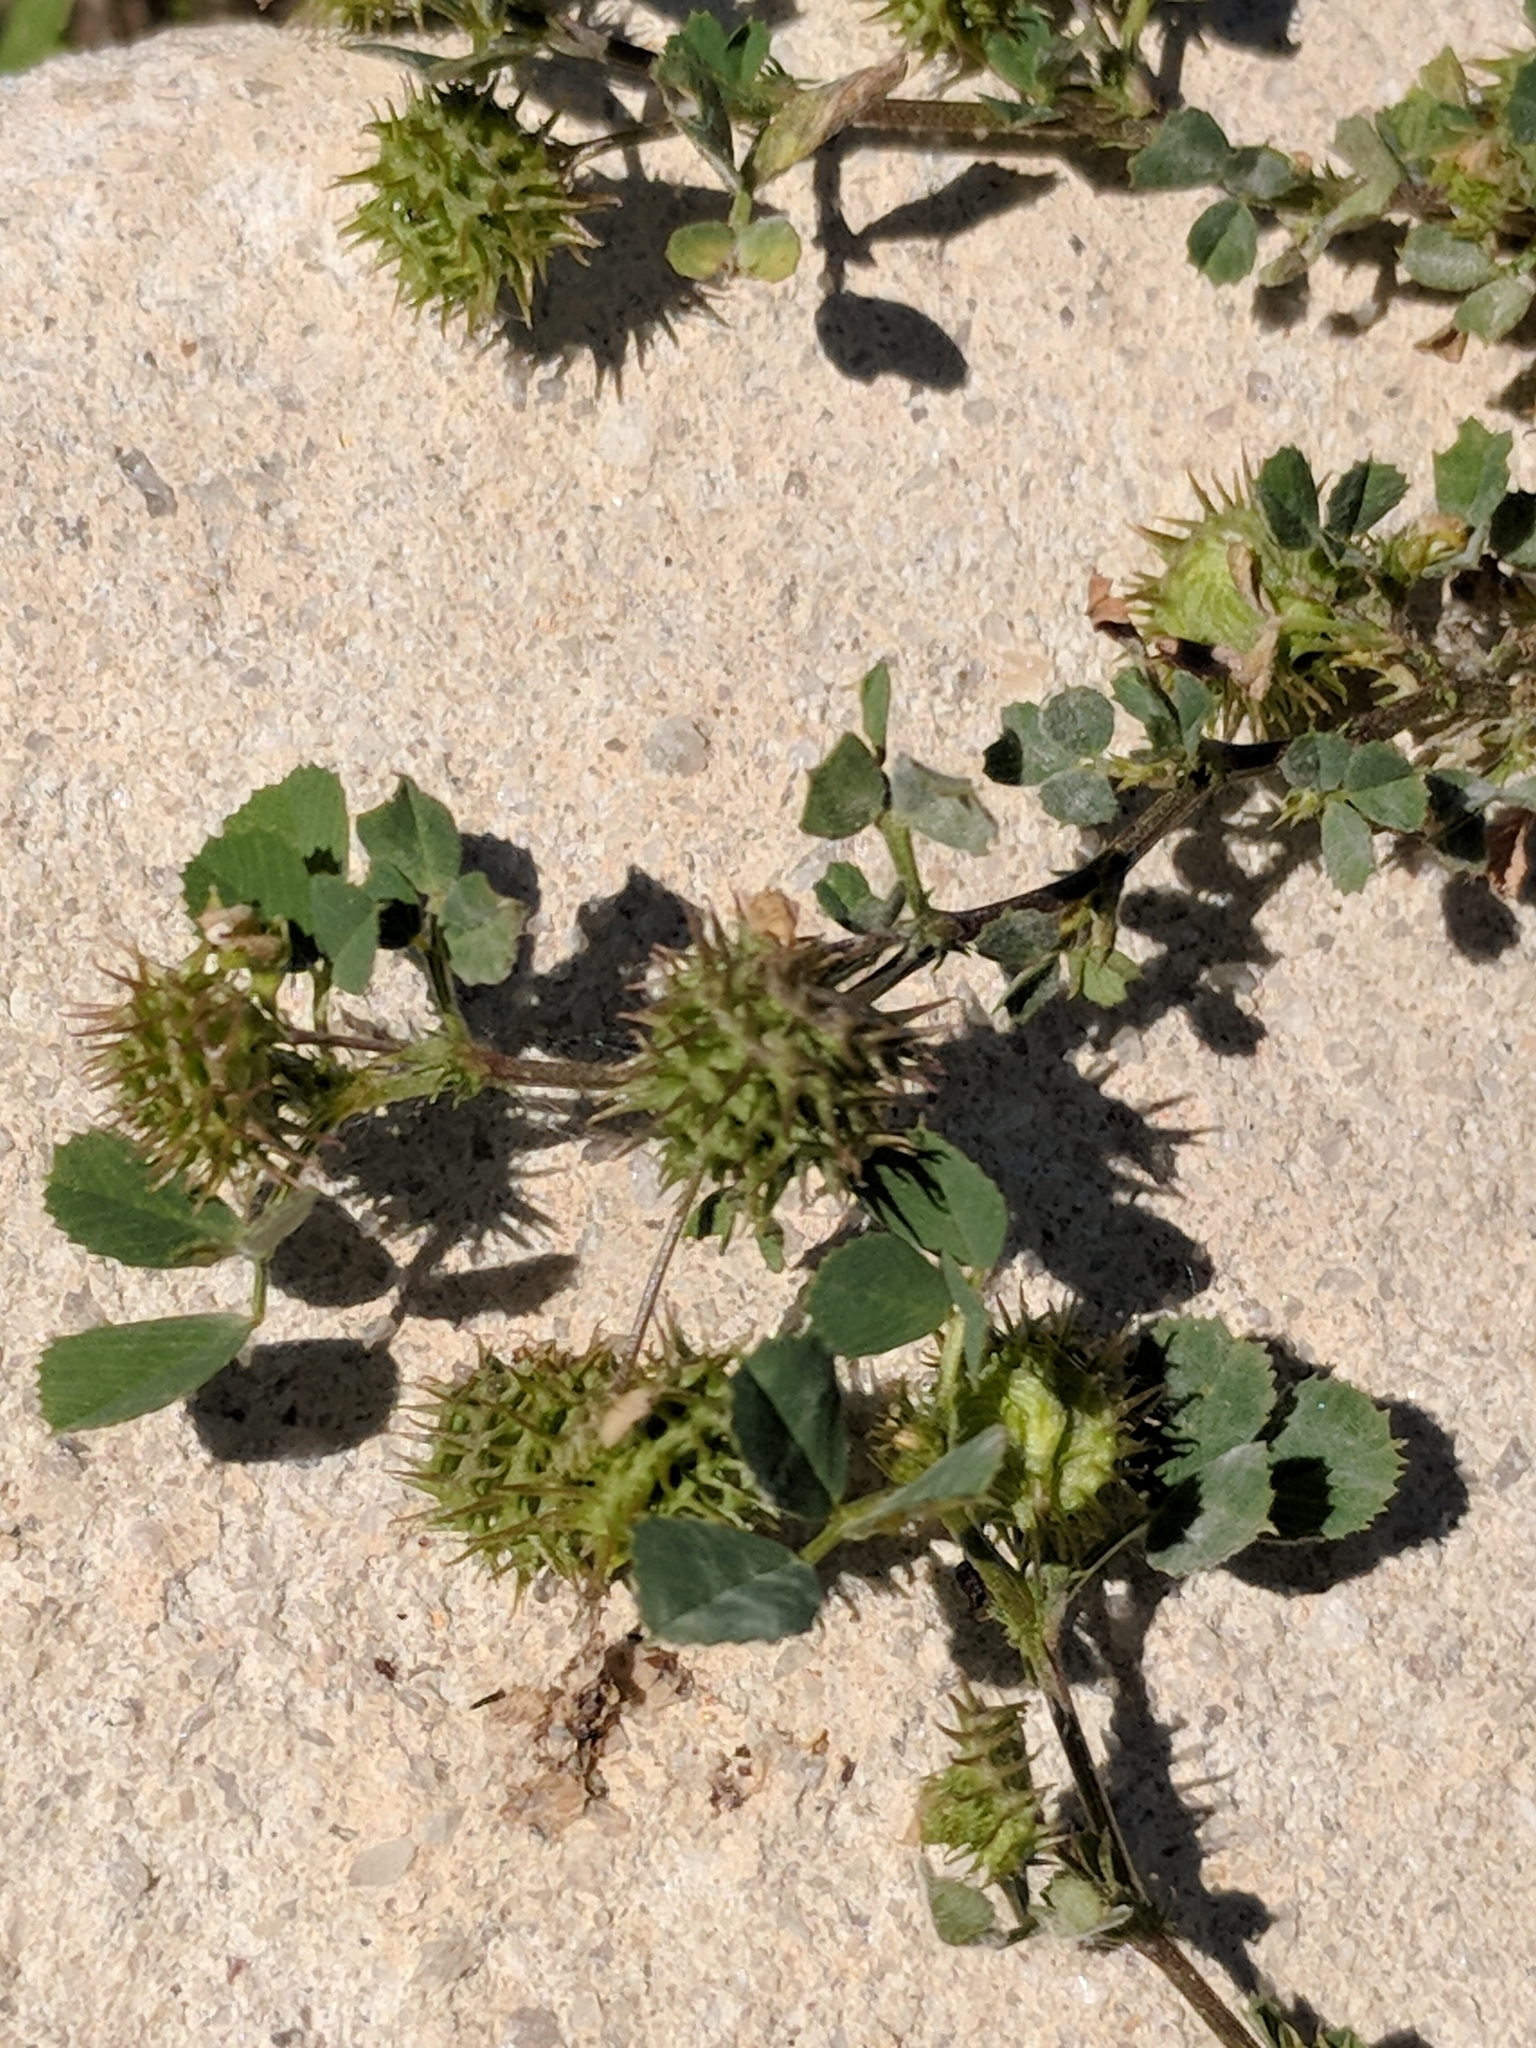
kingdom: Plantae
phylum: Tracheophyta
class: Magnoliopsida
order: Fabales
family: Fabaceae
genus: Medicago
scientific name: Medicago polymorpha
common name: Burclover
